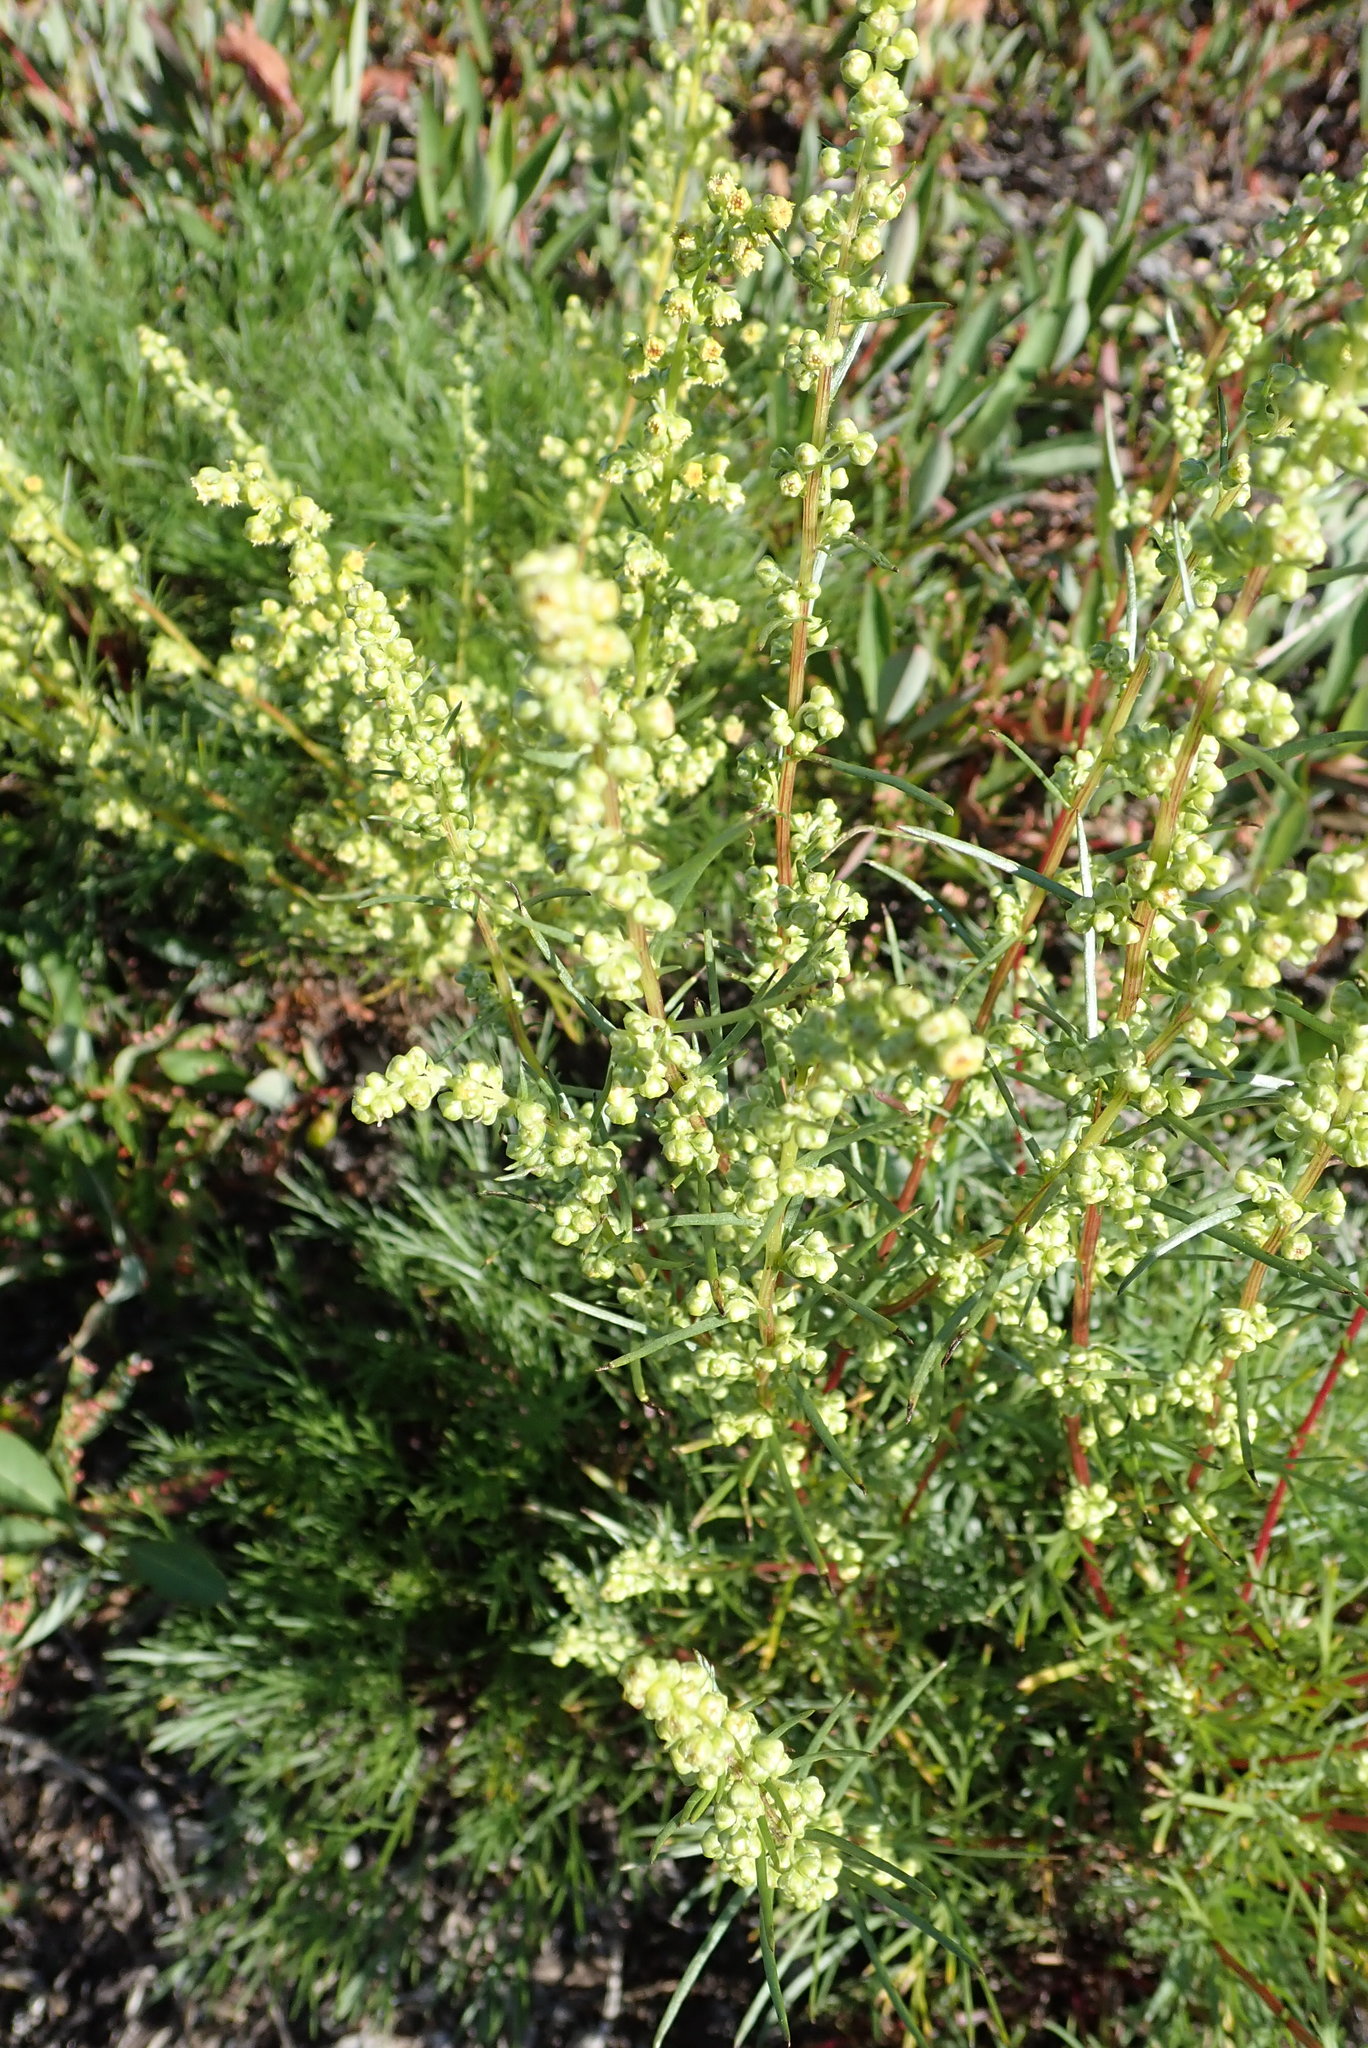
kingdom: Plantae
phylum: Tracheophyta
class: Magnoliopsida
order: Asterales
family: Asteraceae
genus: Artemisia
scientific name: Artemisia campestris
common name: Field wormwood
